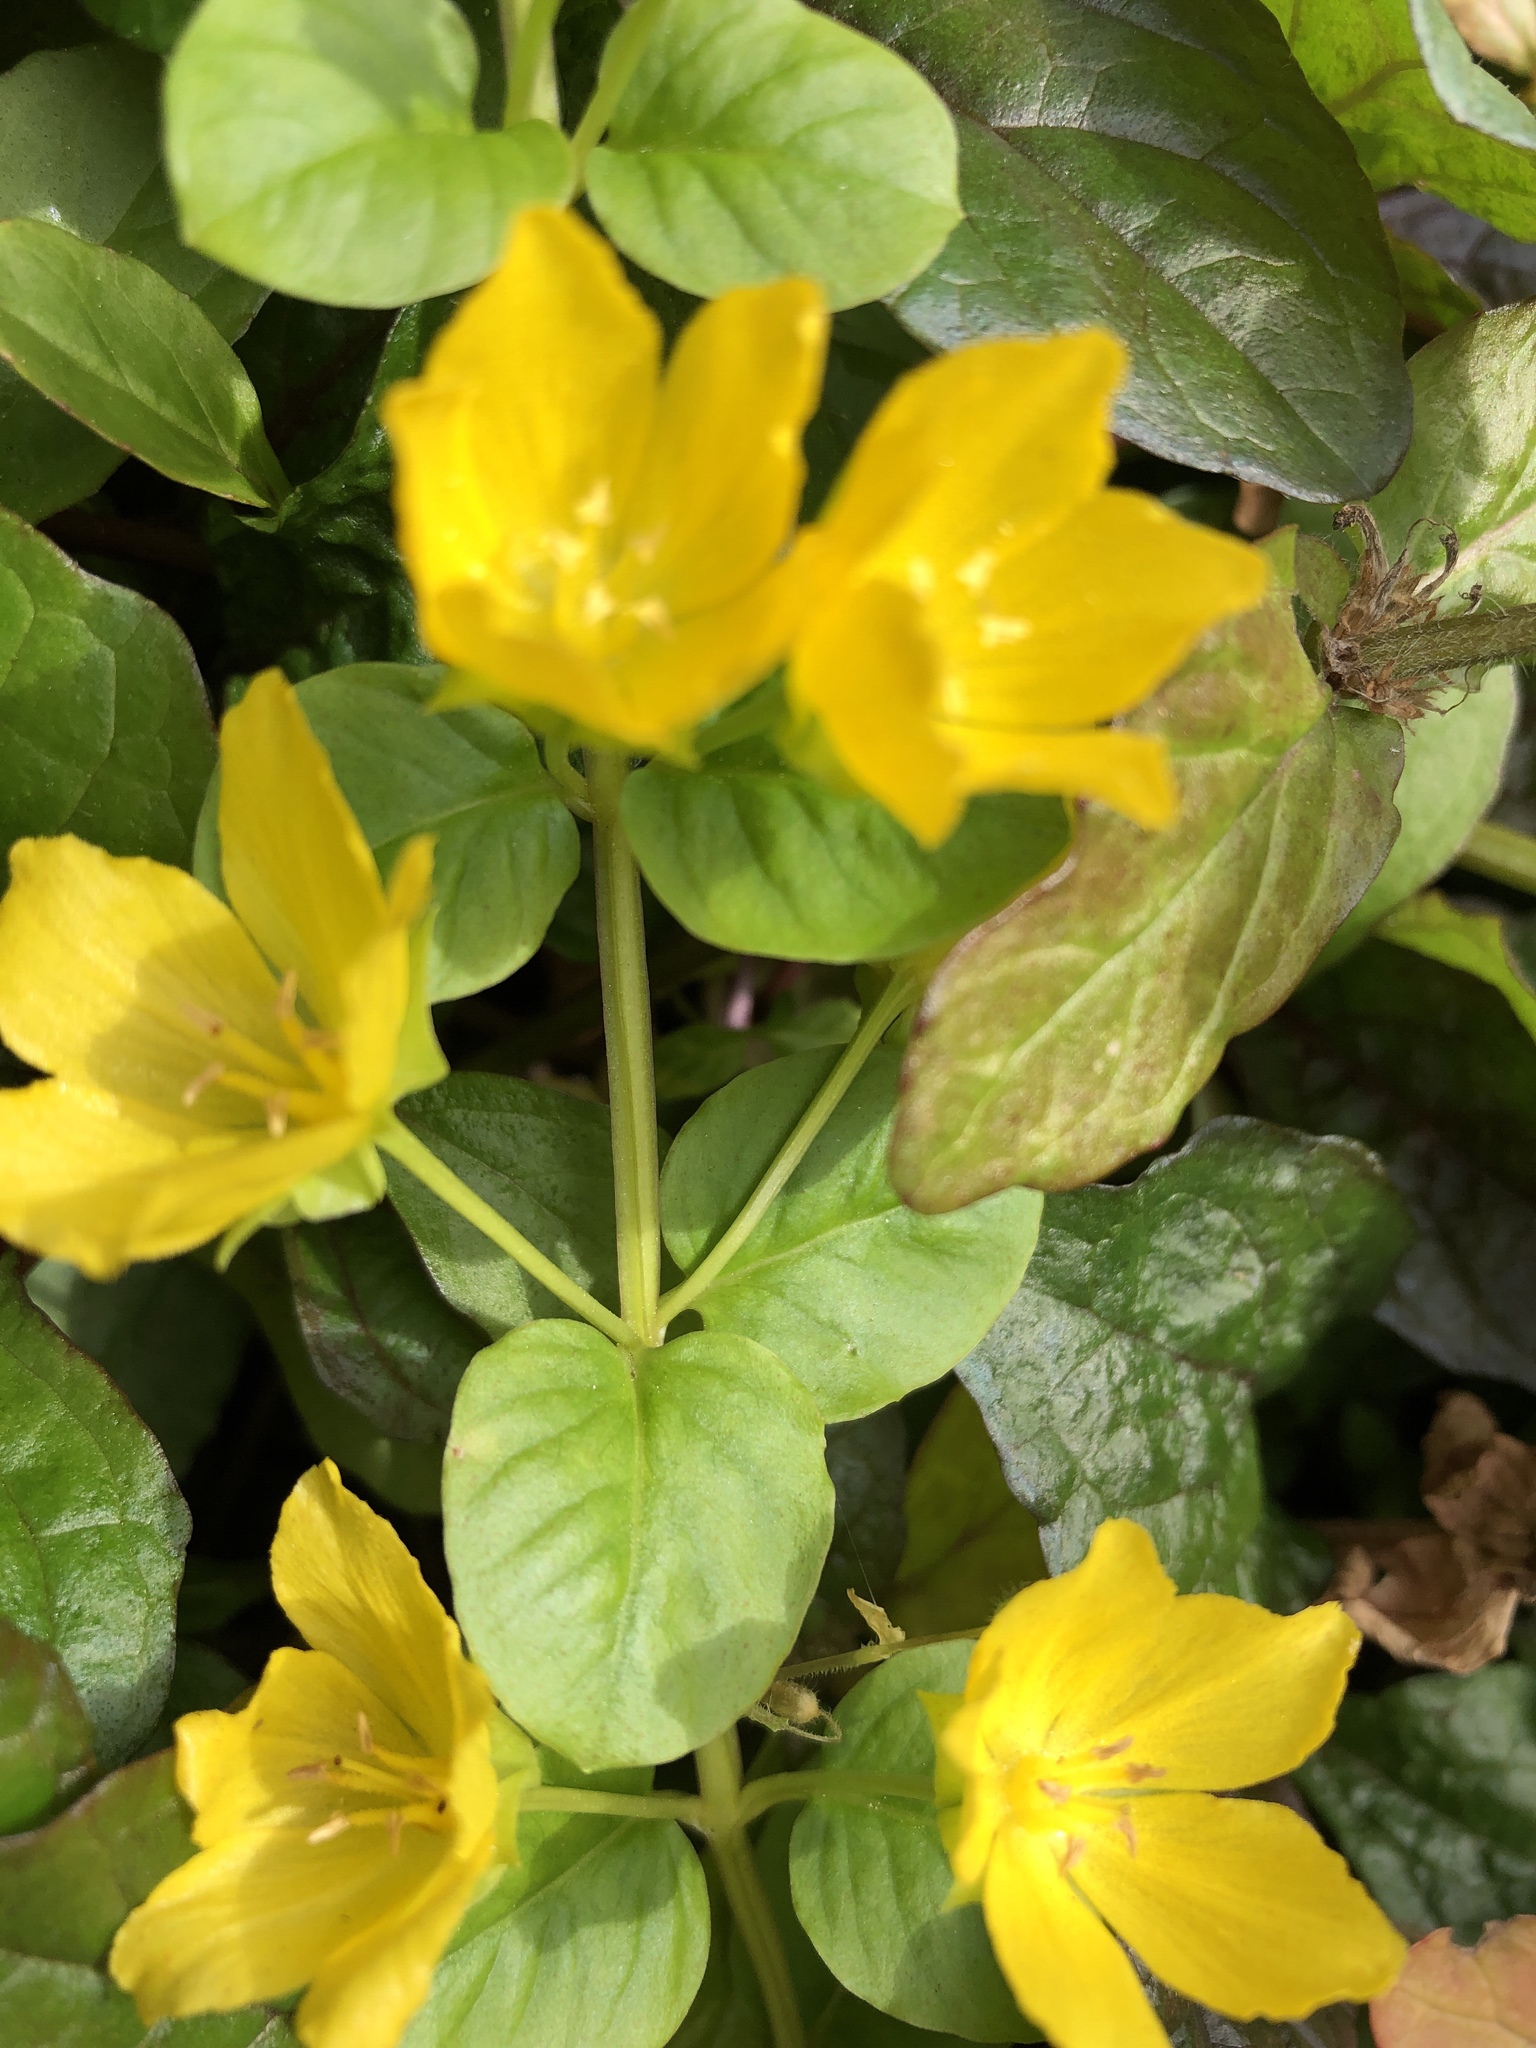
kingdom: Plantae
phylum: Tracheophyta
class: Magnoliopsida
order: Ericales
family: Primulaceae
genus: Lysimachia
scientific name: Lysimachia nummularia
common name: Moneywort
